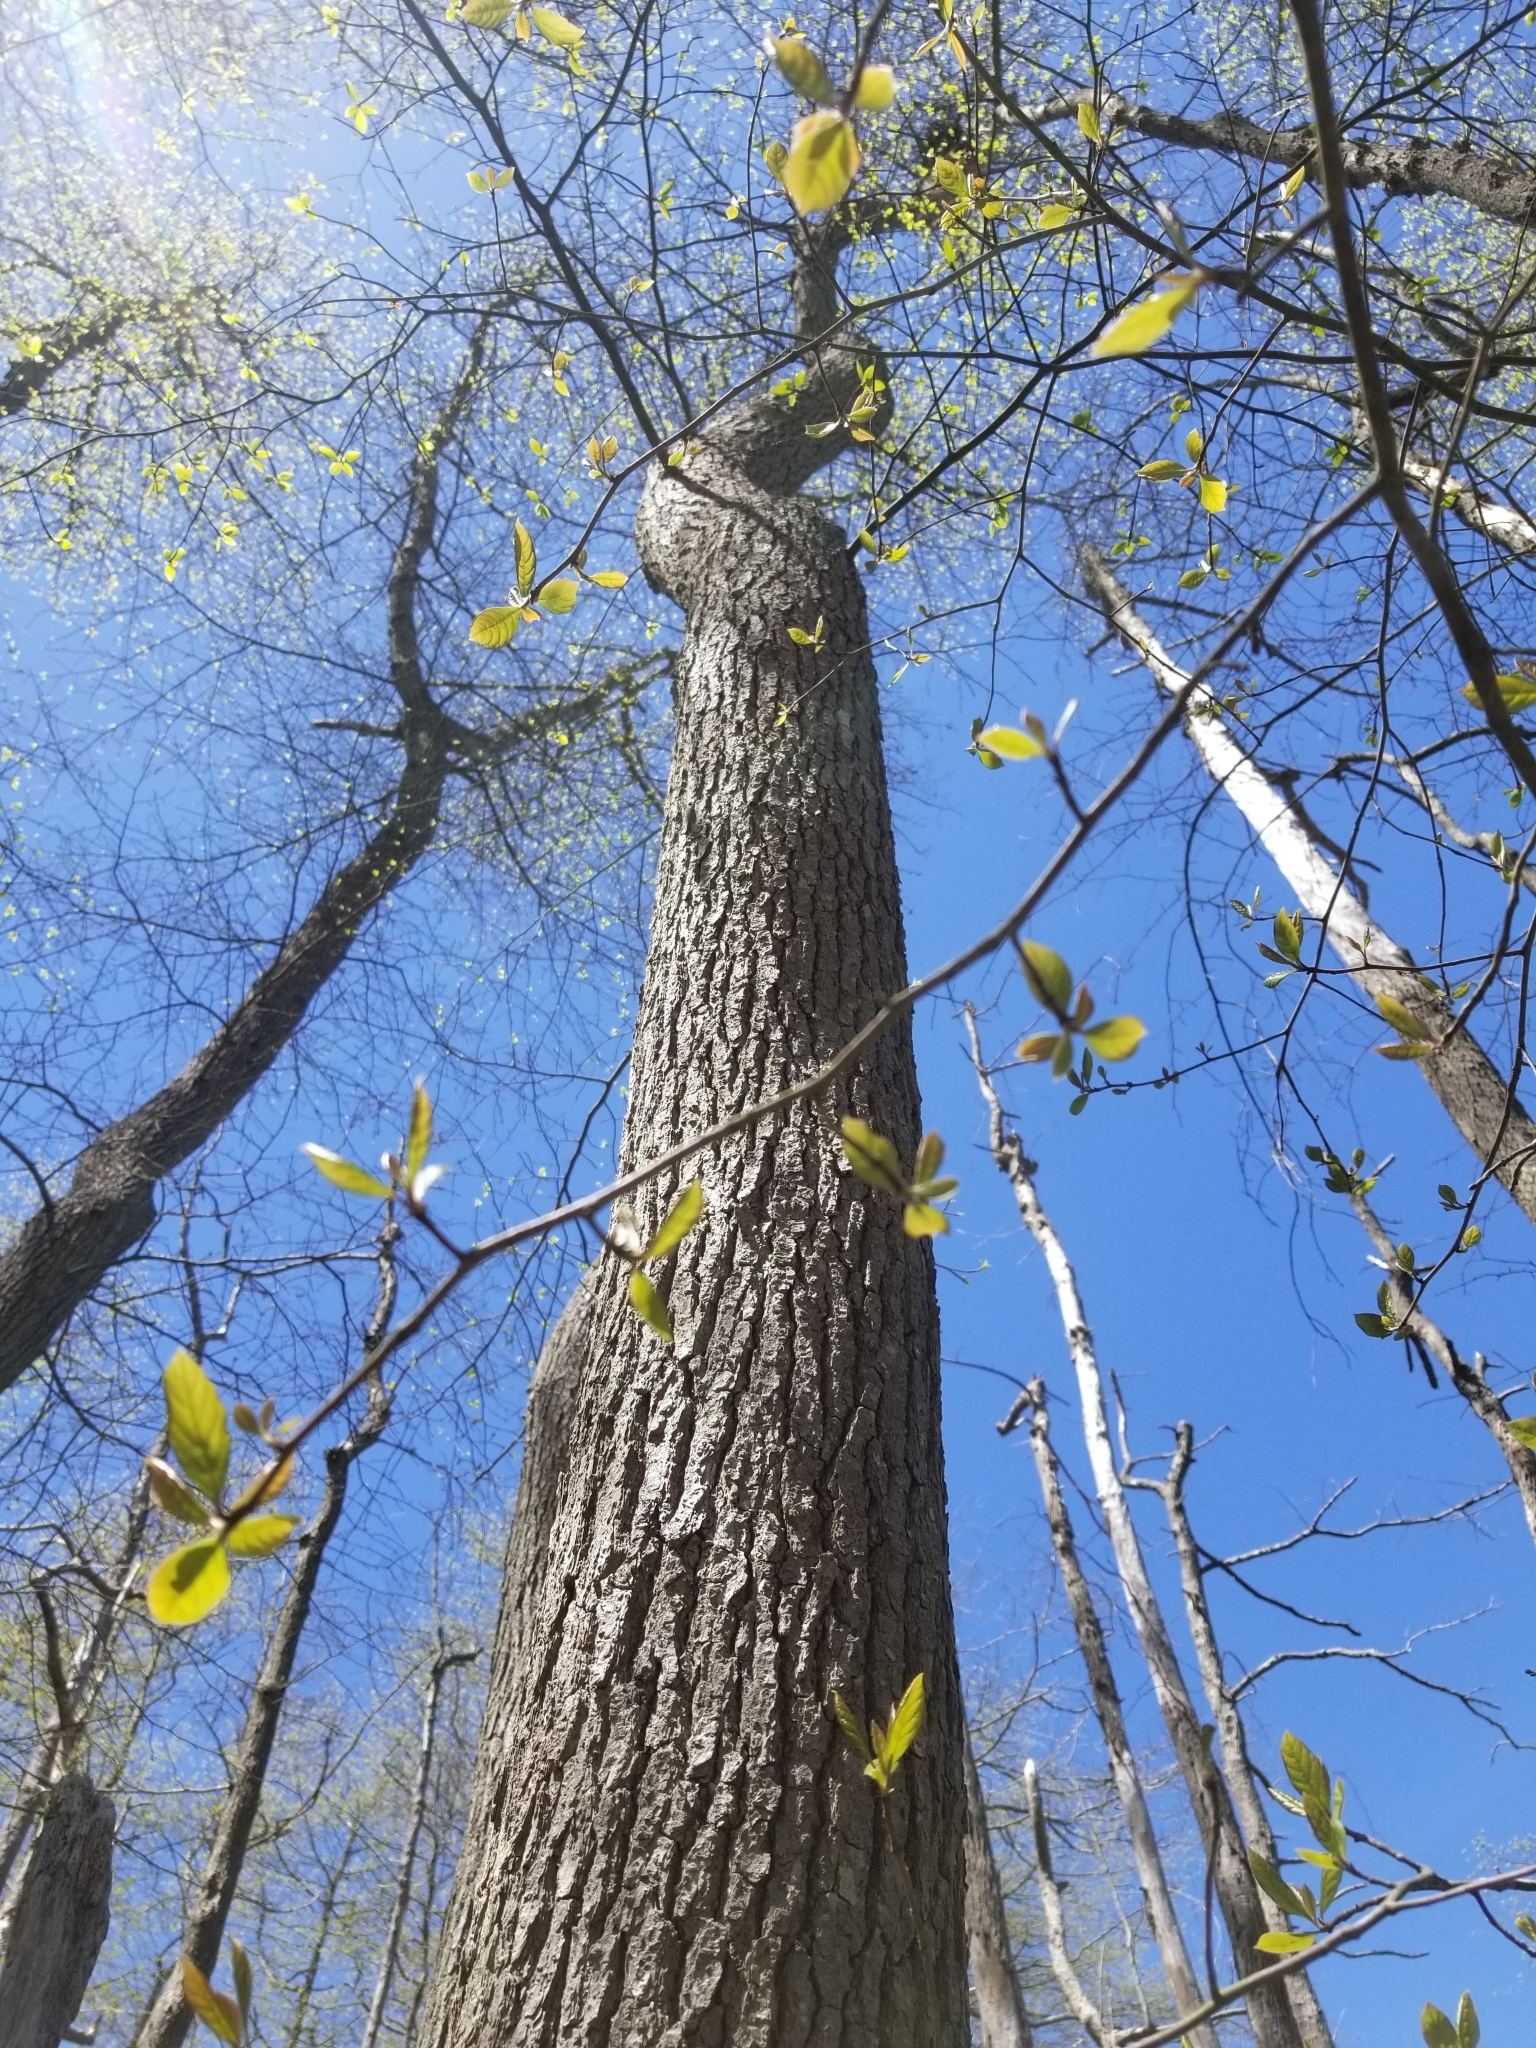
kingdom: Plantae
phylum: Tracheophyta
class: Magnoliopsida
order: Cornales
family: Nyssaceae
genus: Nyssa
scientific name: Nyssa sylvatica
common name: Black tupelo
